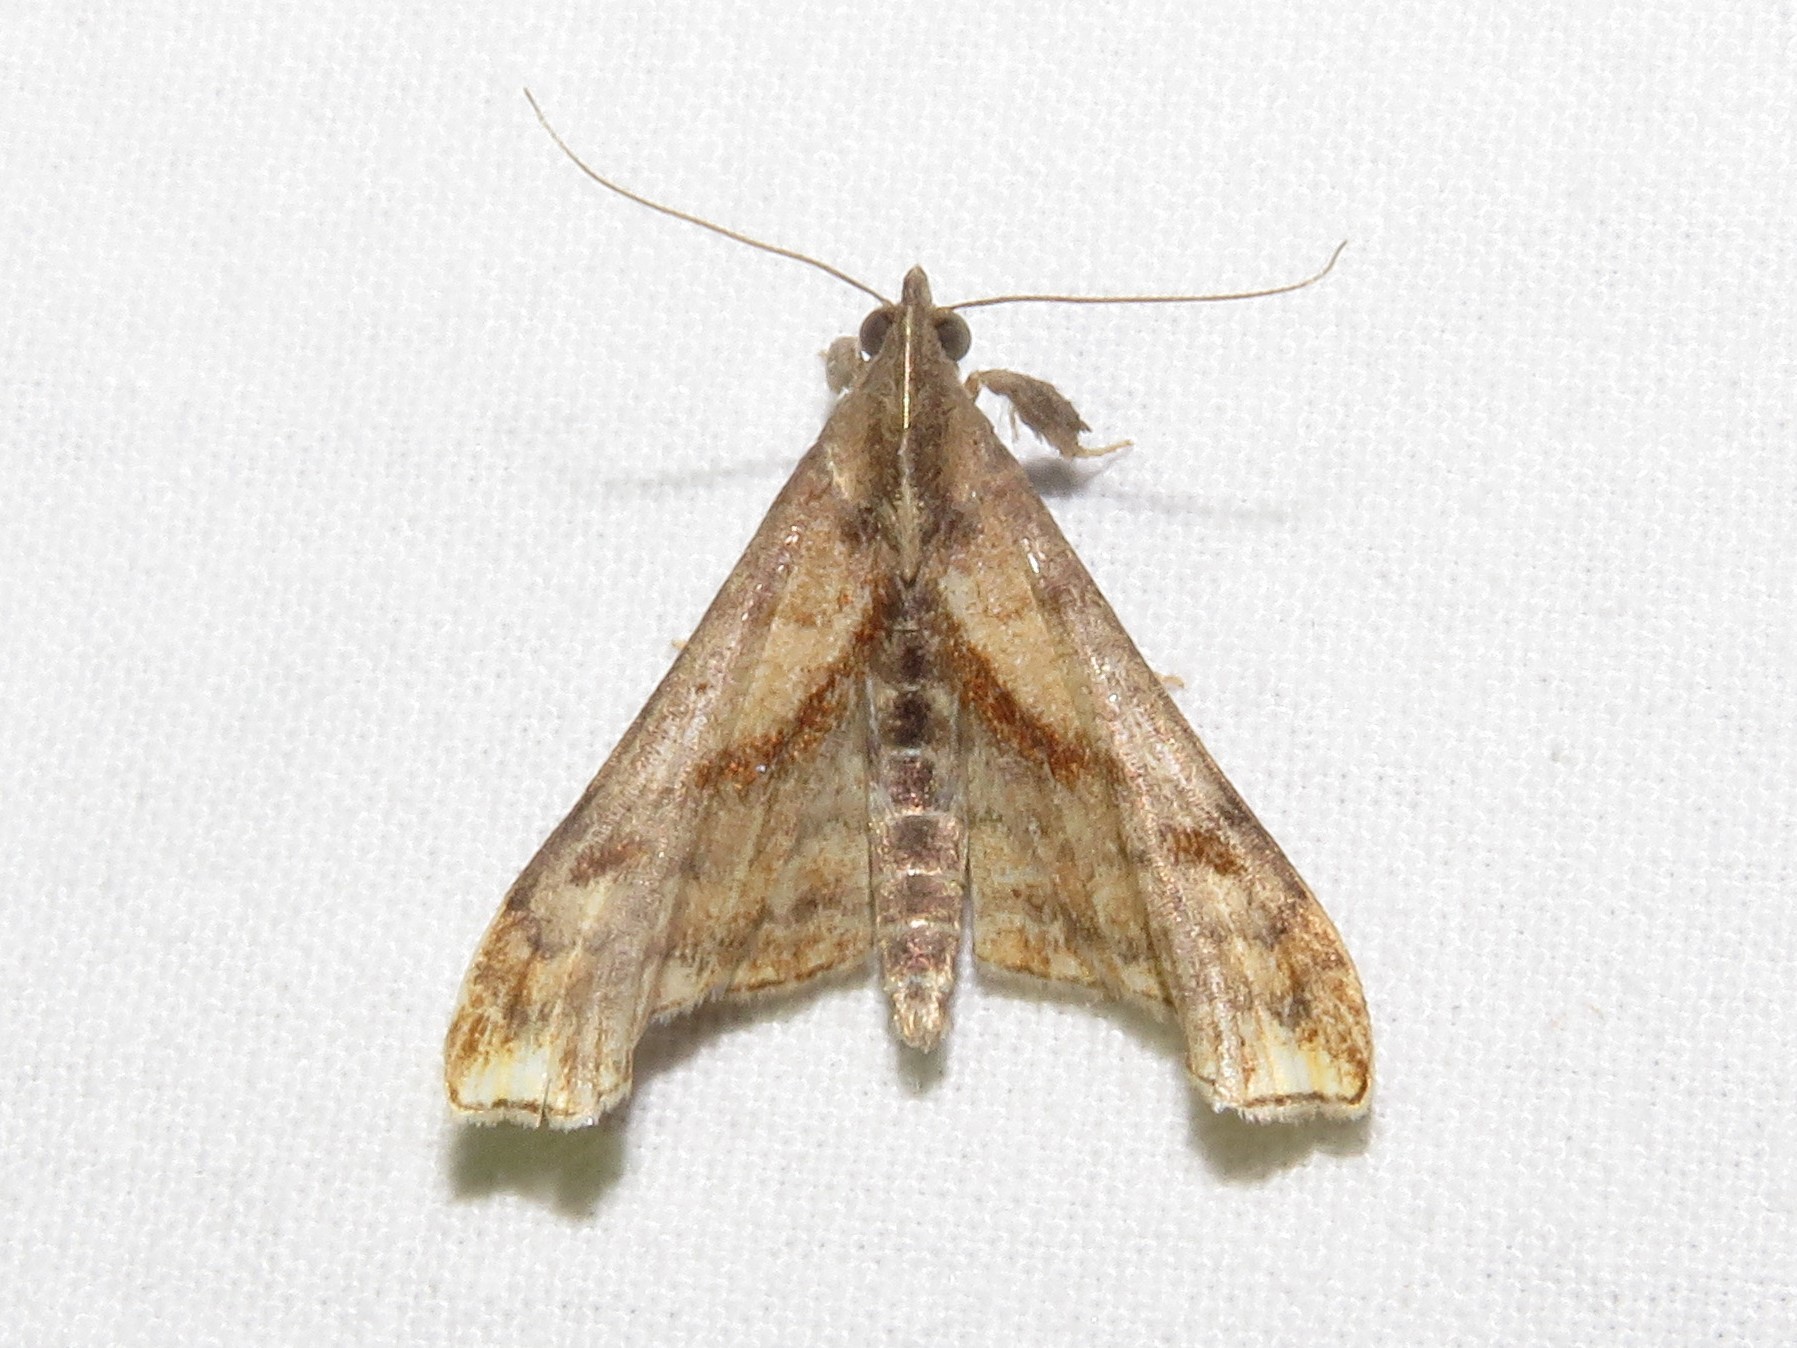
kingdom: Animalia
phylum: Arthropoda
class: Insecta
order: Lepidoptera
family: Erebidae
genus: Palthis
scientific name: Palthis angulalis
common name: Dark-spotted palthis moth
